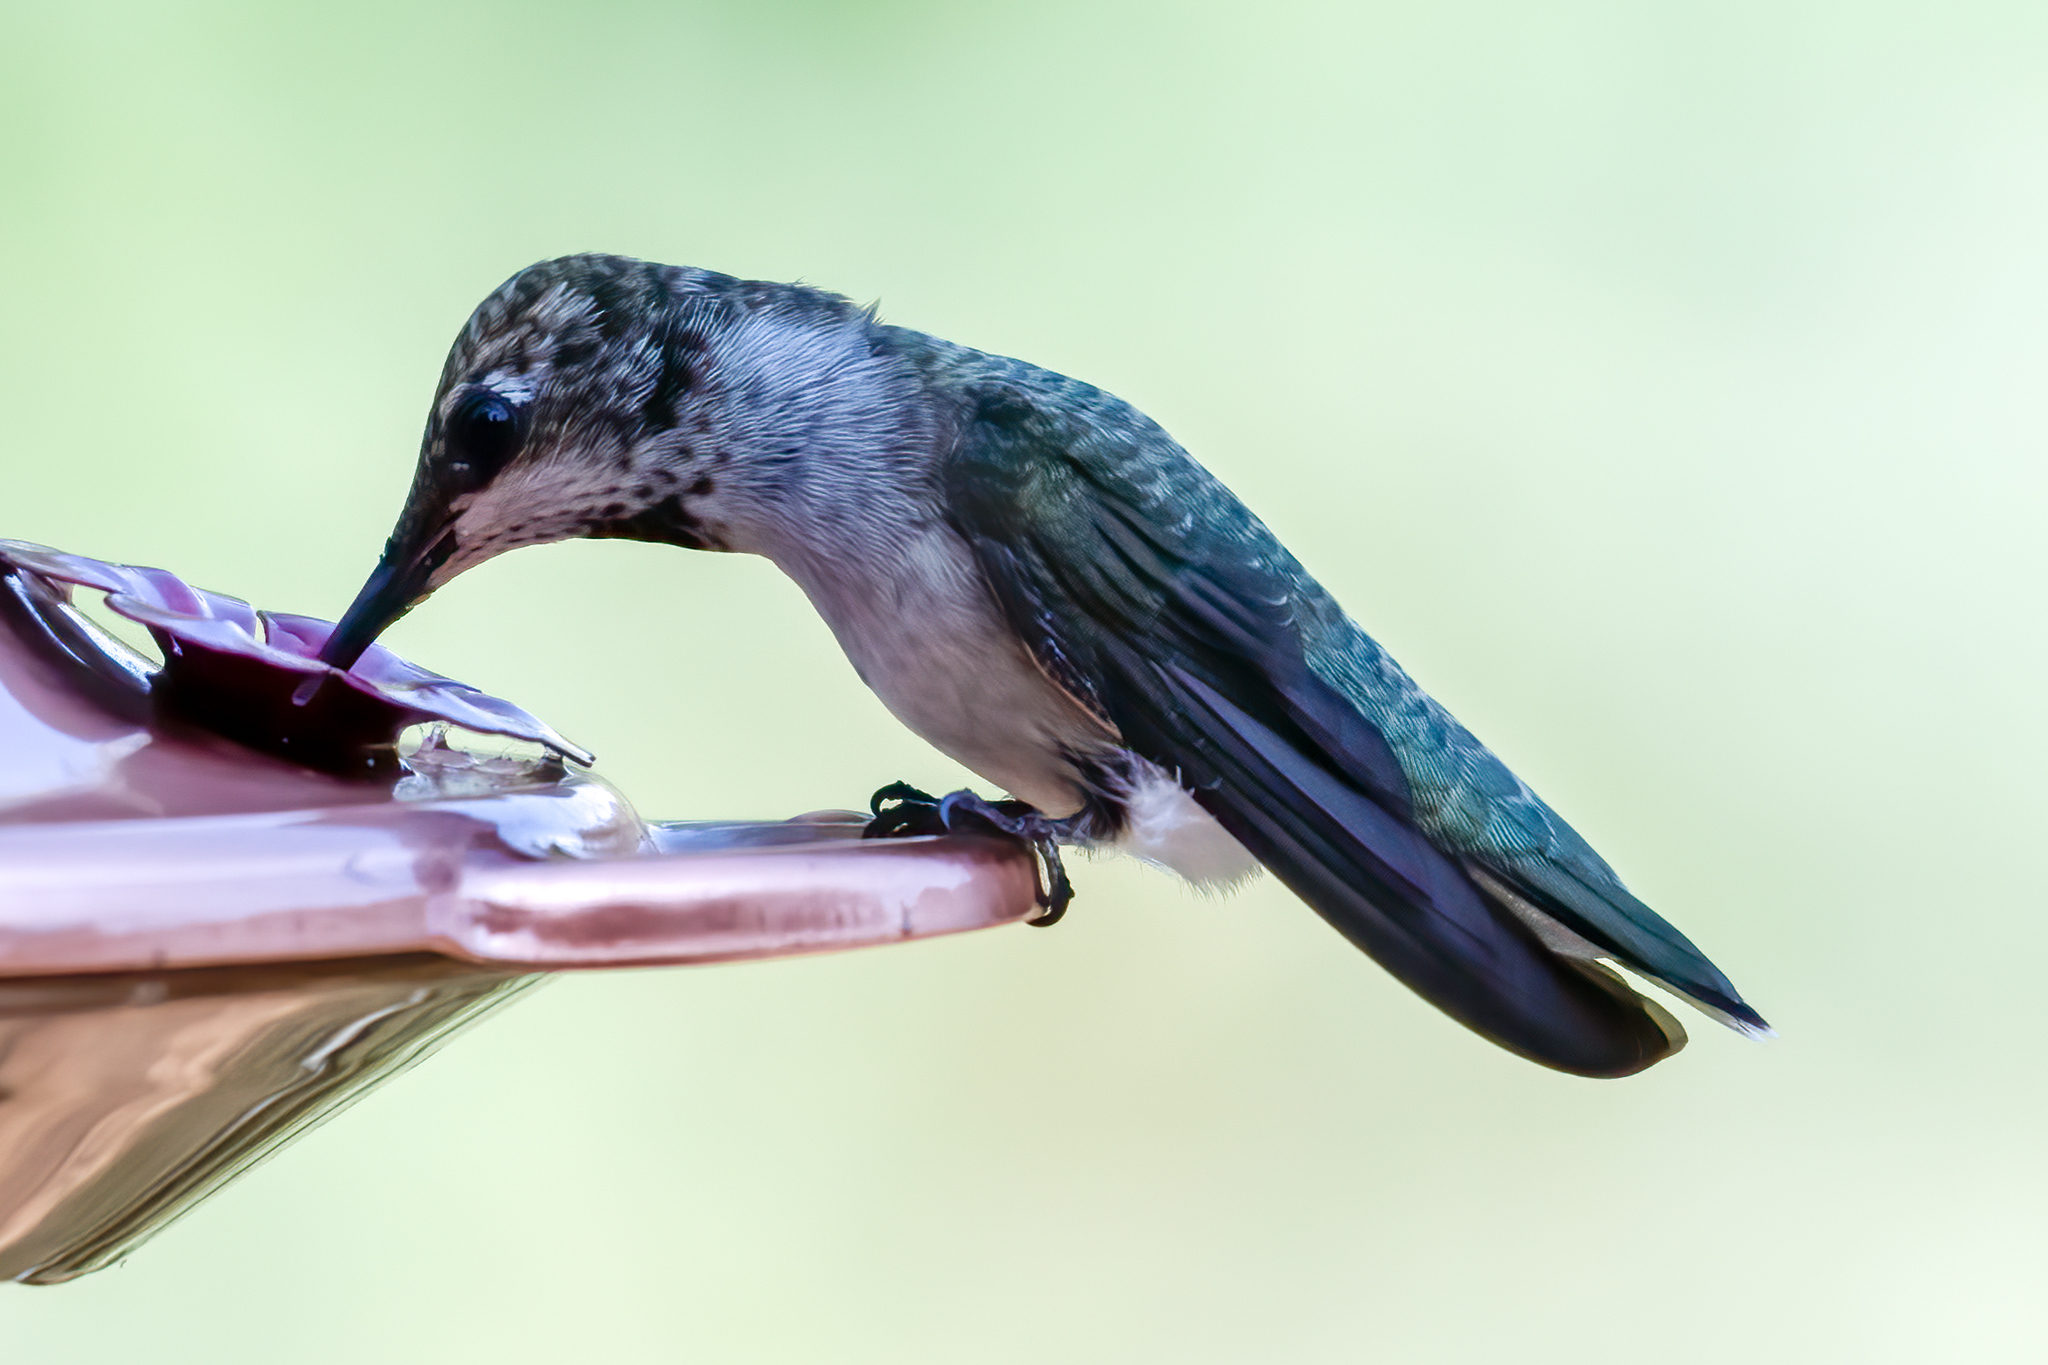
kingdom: Animalia
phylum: Chordata
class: Aves
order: Apodiformes
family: Trochilidae
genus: Archilochus
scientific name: Archilochus alexandri
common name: Black-chinned hummingbird
